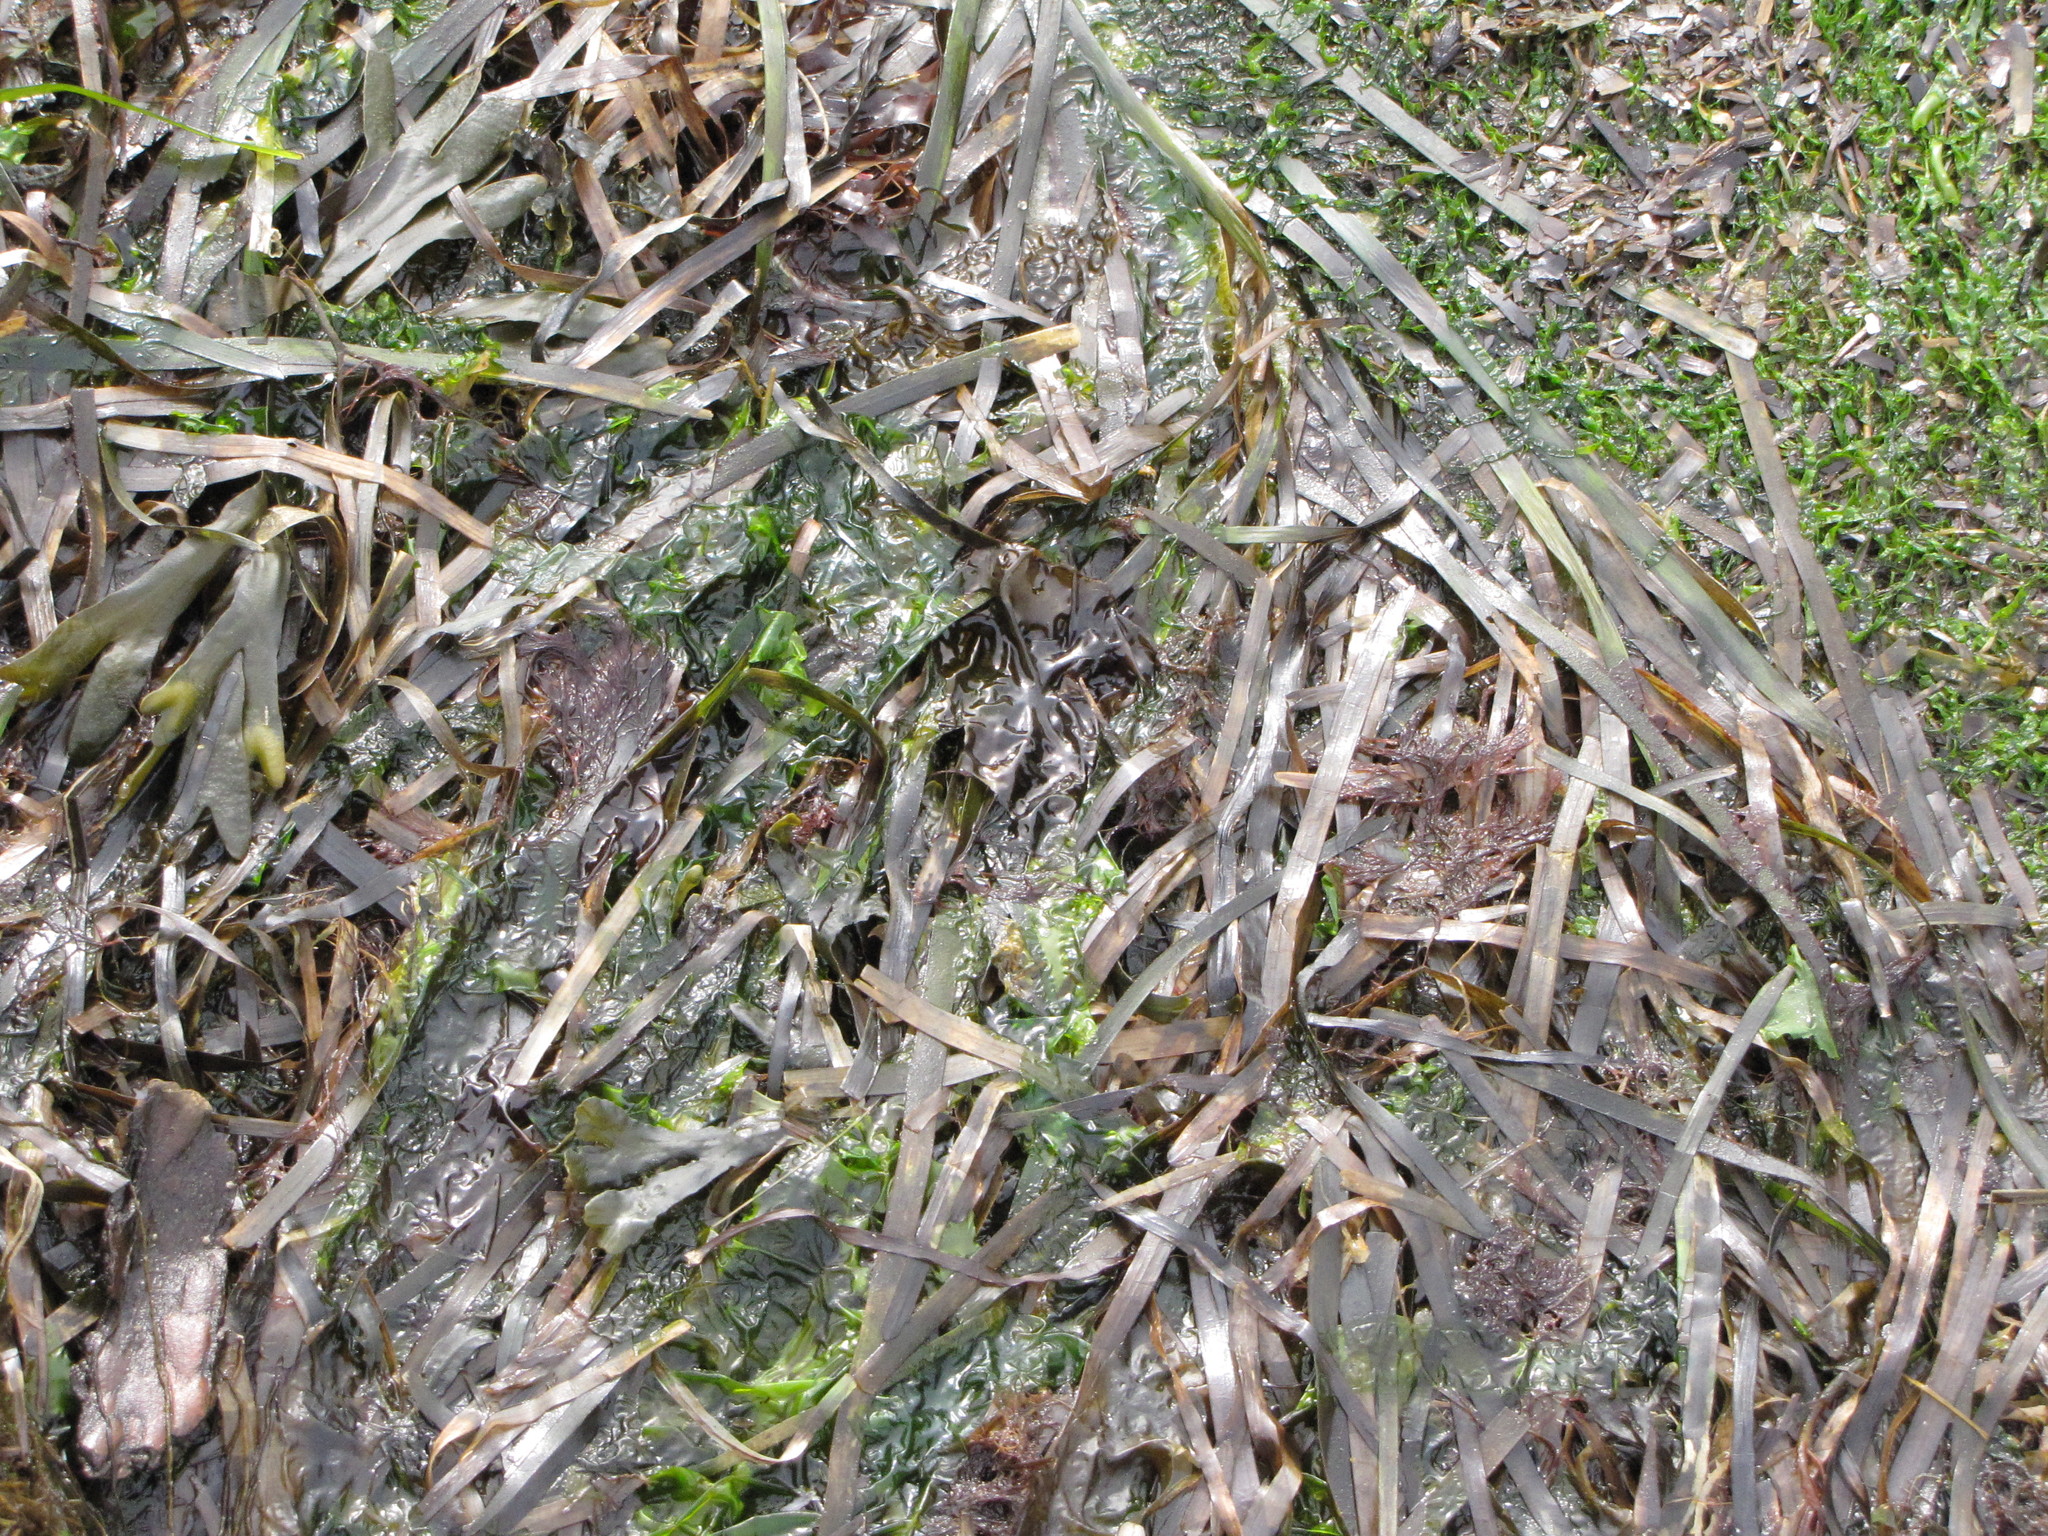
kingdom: Plantae
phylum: Tracheophyta
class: Liliopsida
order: Alismatales
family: Zosteraceae
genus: Zostera
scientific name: Zostera marina
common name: Eelgrass
